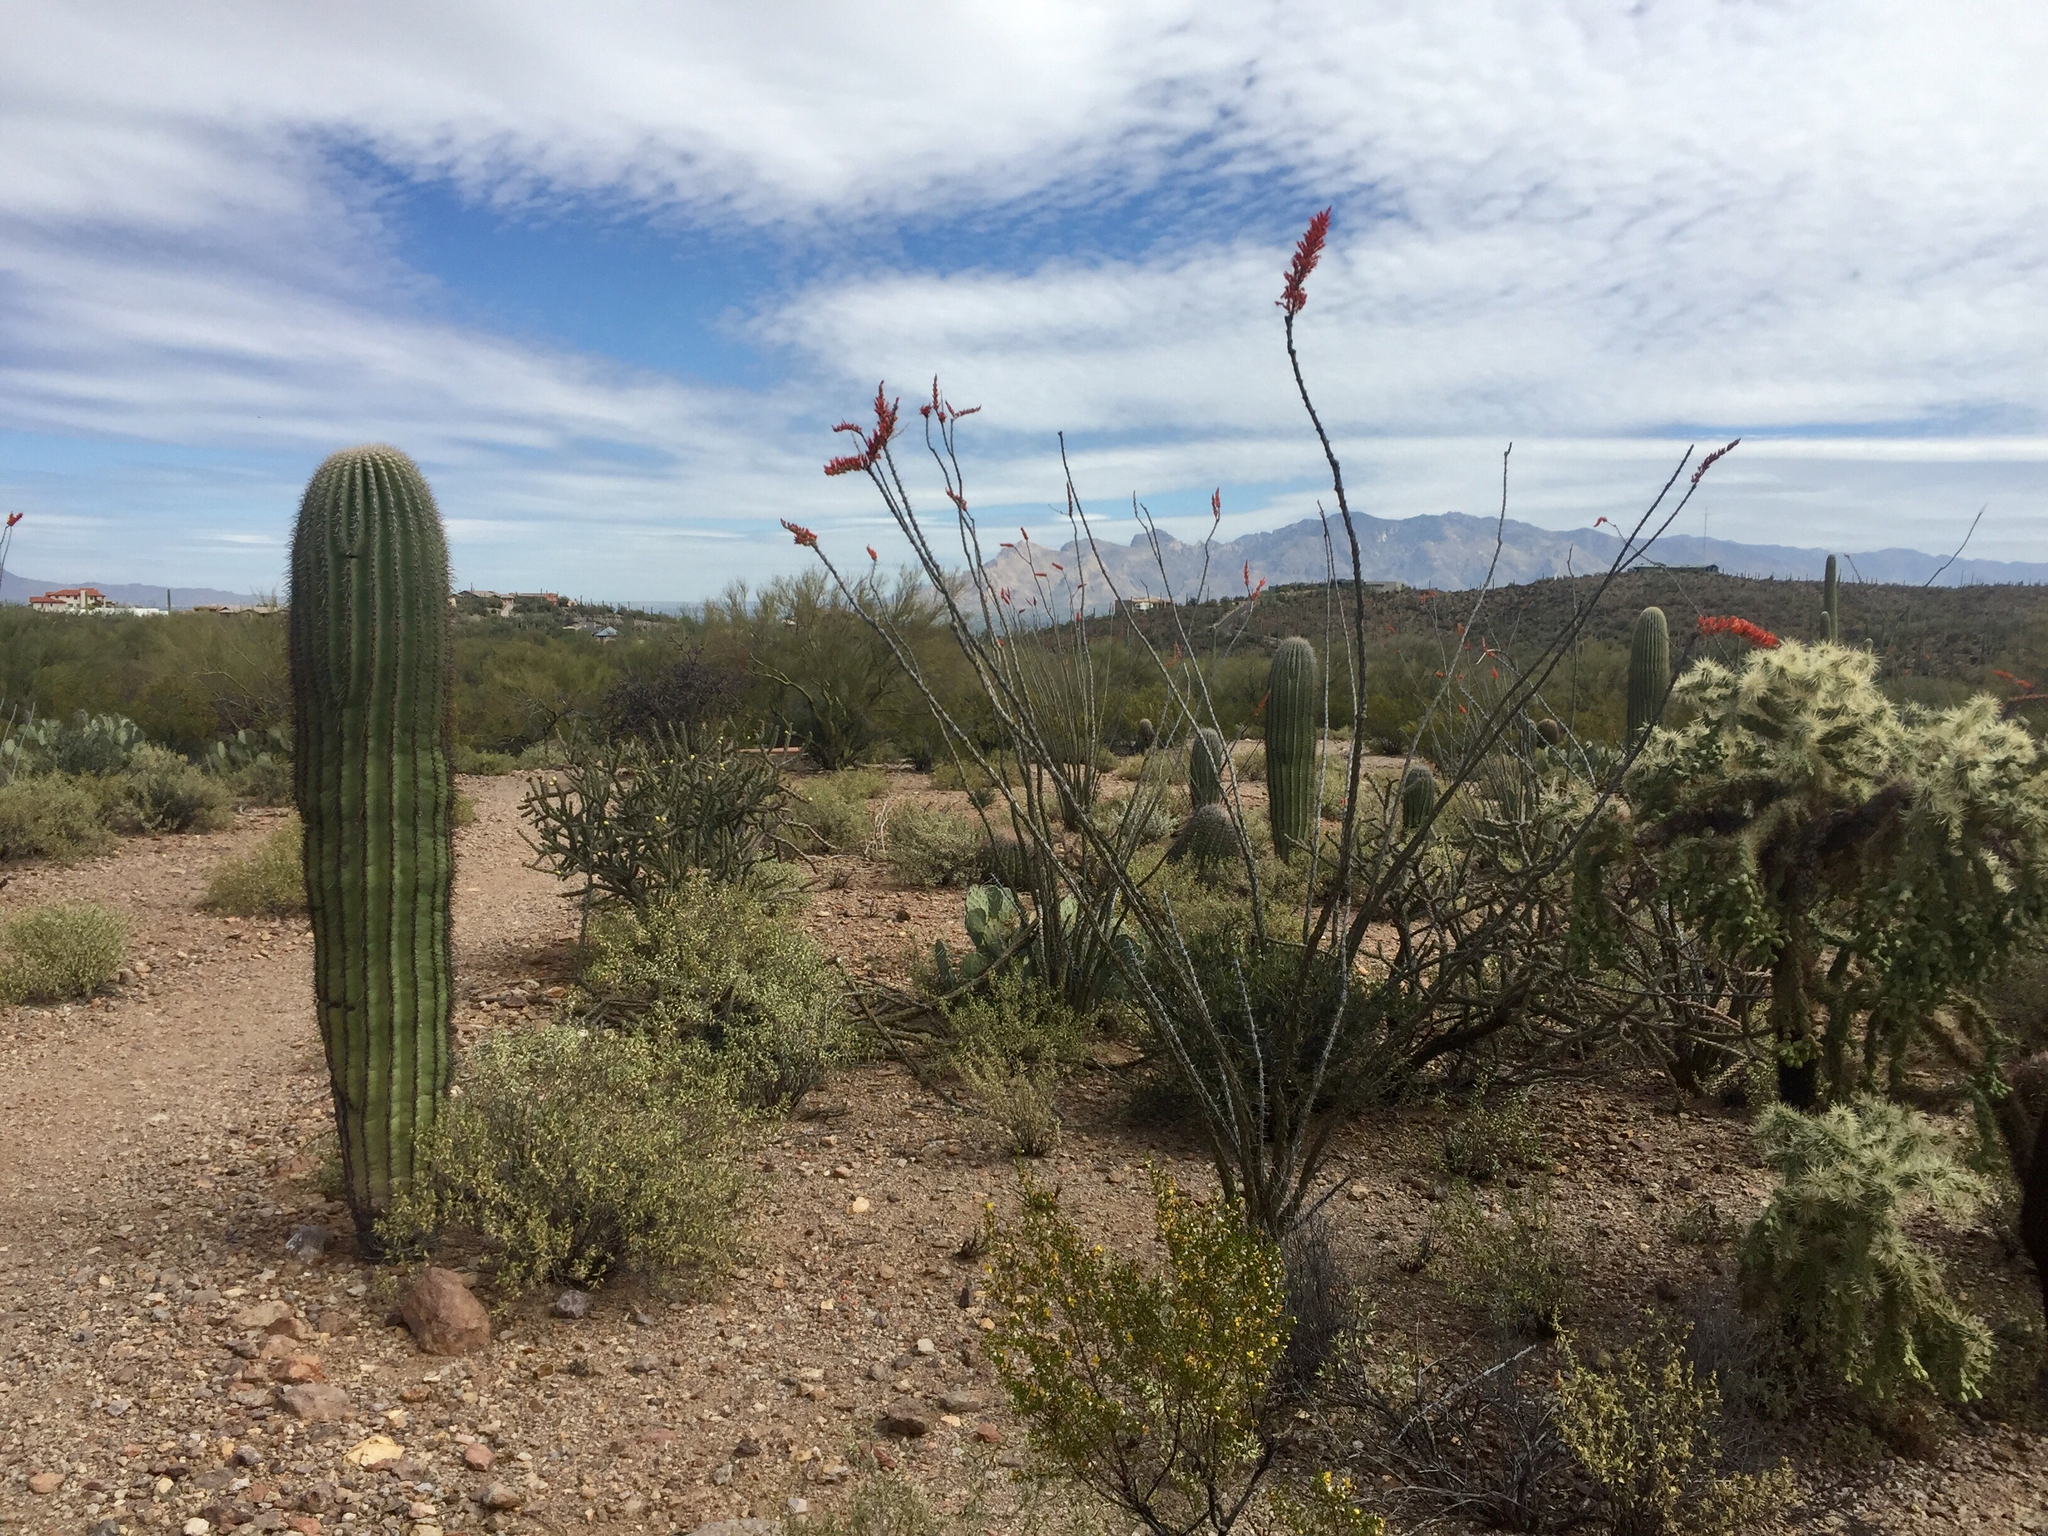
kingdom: Plantae
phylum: Tracheophyta
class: Magnoliopsida
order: Ericales
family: Fouquieriaceae
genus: Fouquieria
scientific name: Fouquieria splendens
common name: Vine-cactus
